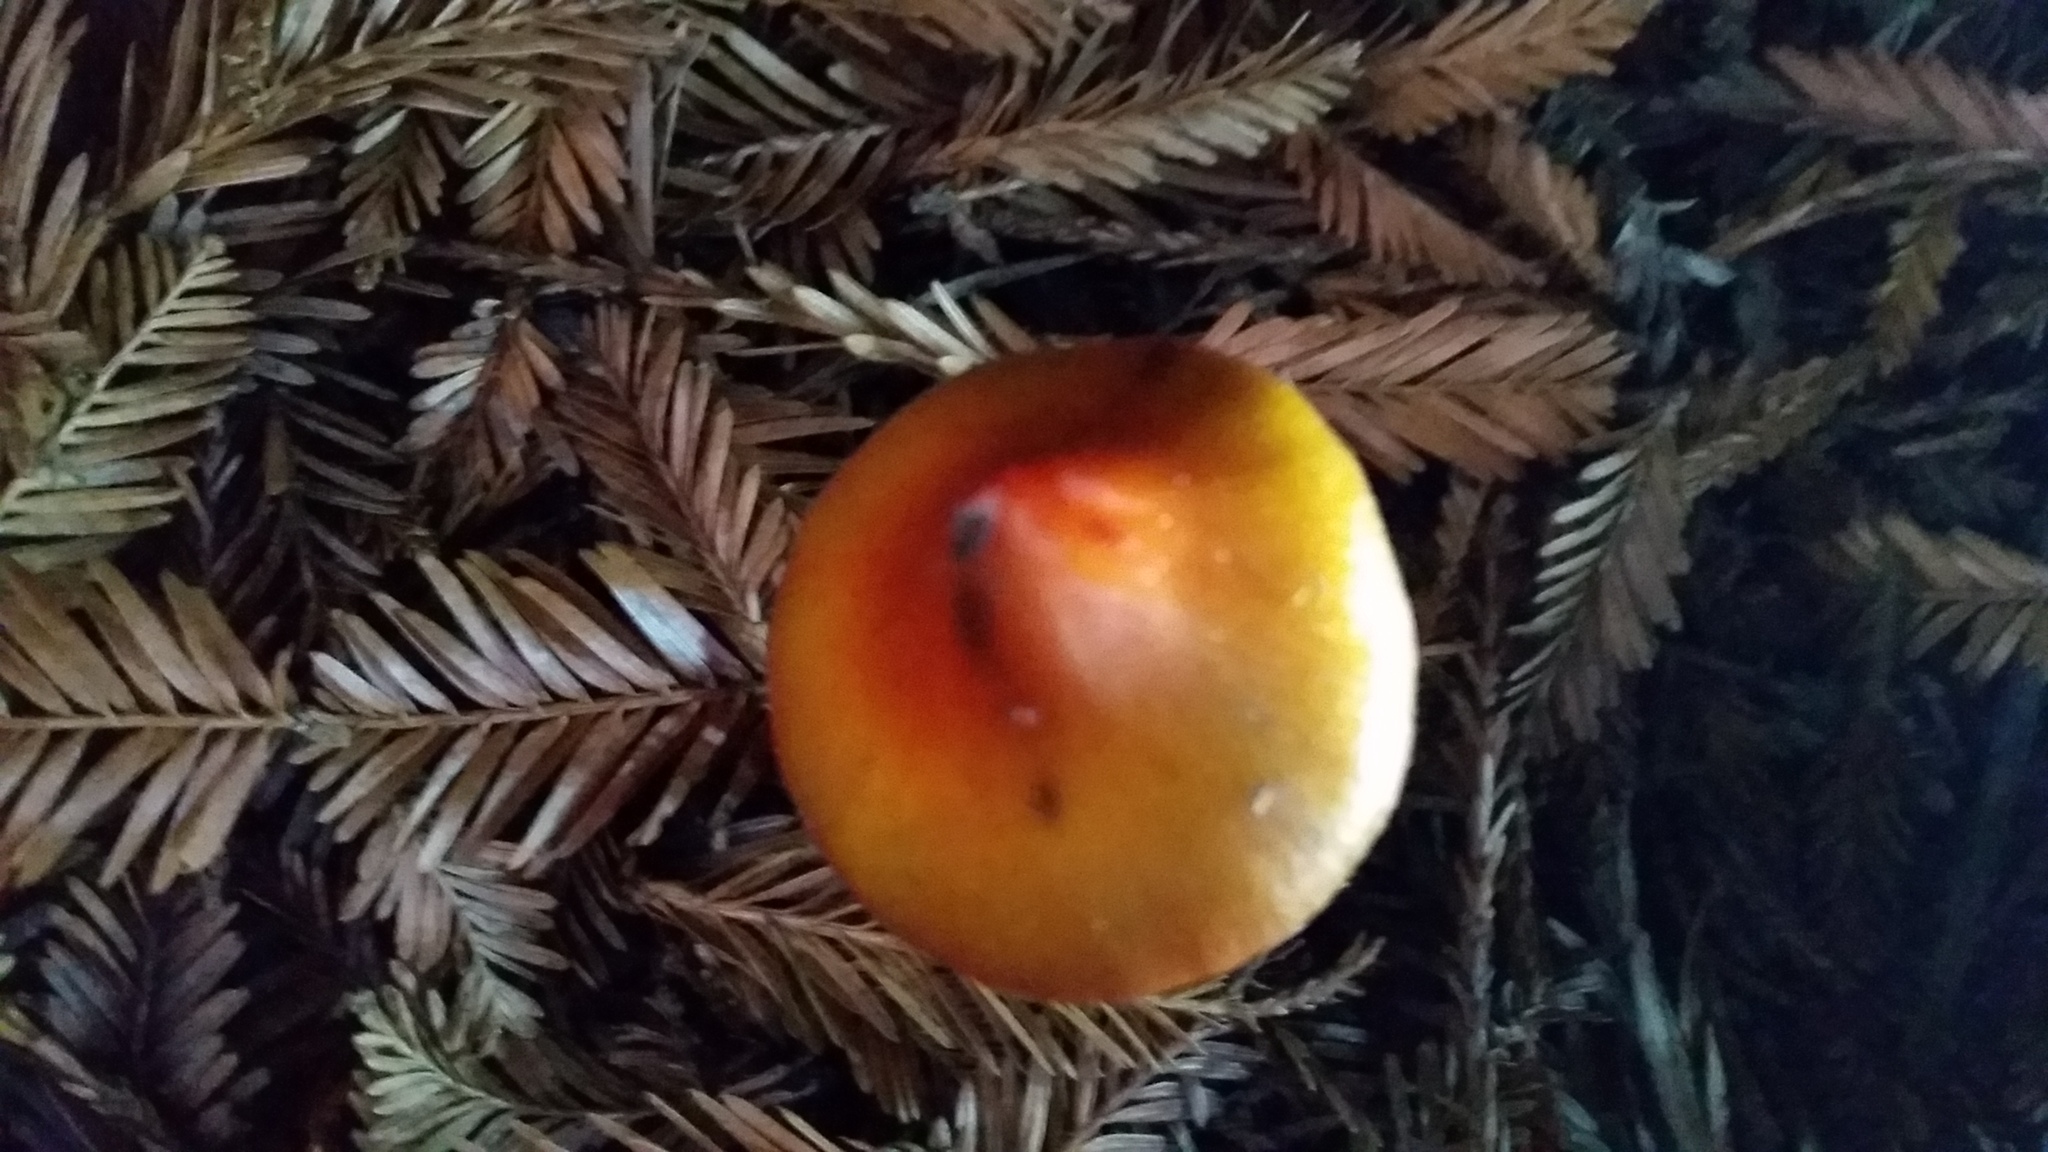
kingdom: Fungi
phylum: Basidiomycota
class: Agaricomycetes
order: Agaricales
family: Hygrophoraceae
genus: Hygrocybe
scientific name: Hygrocybe singeri
